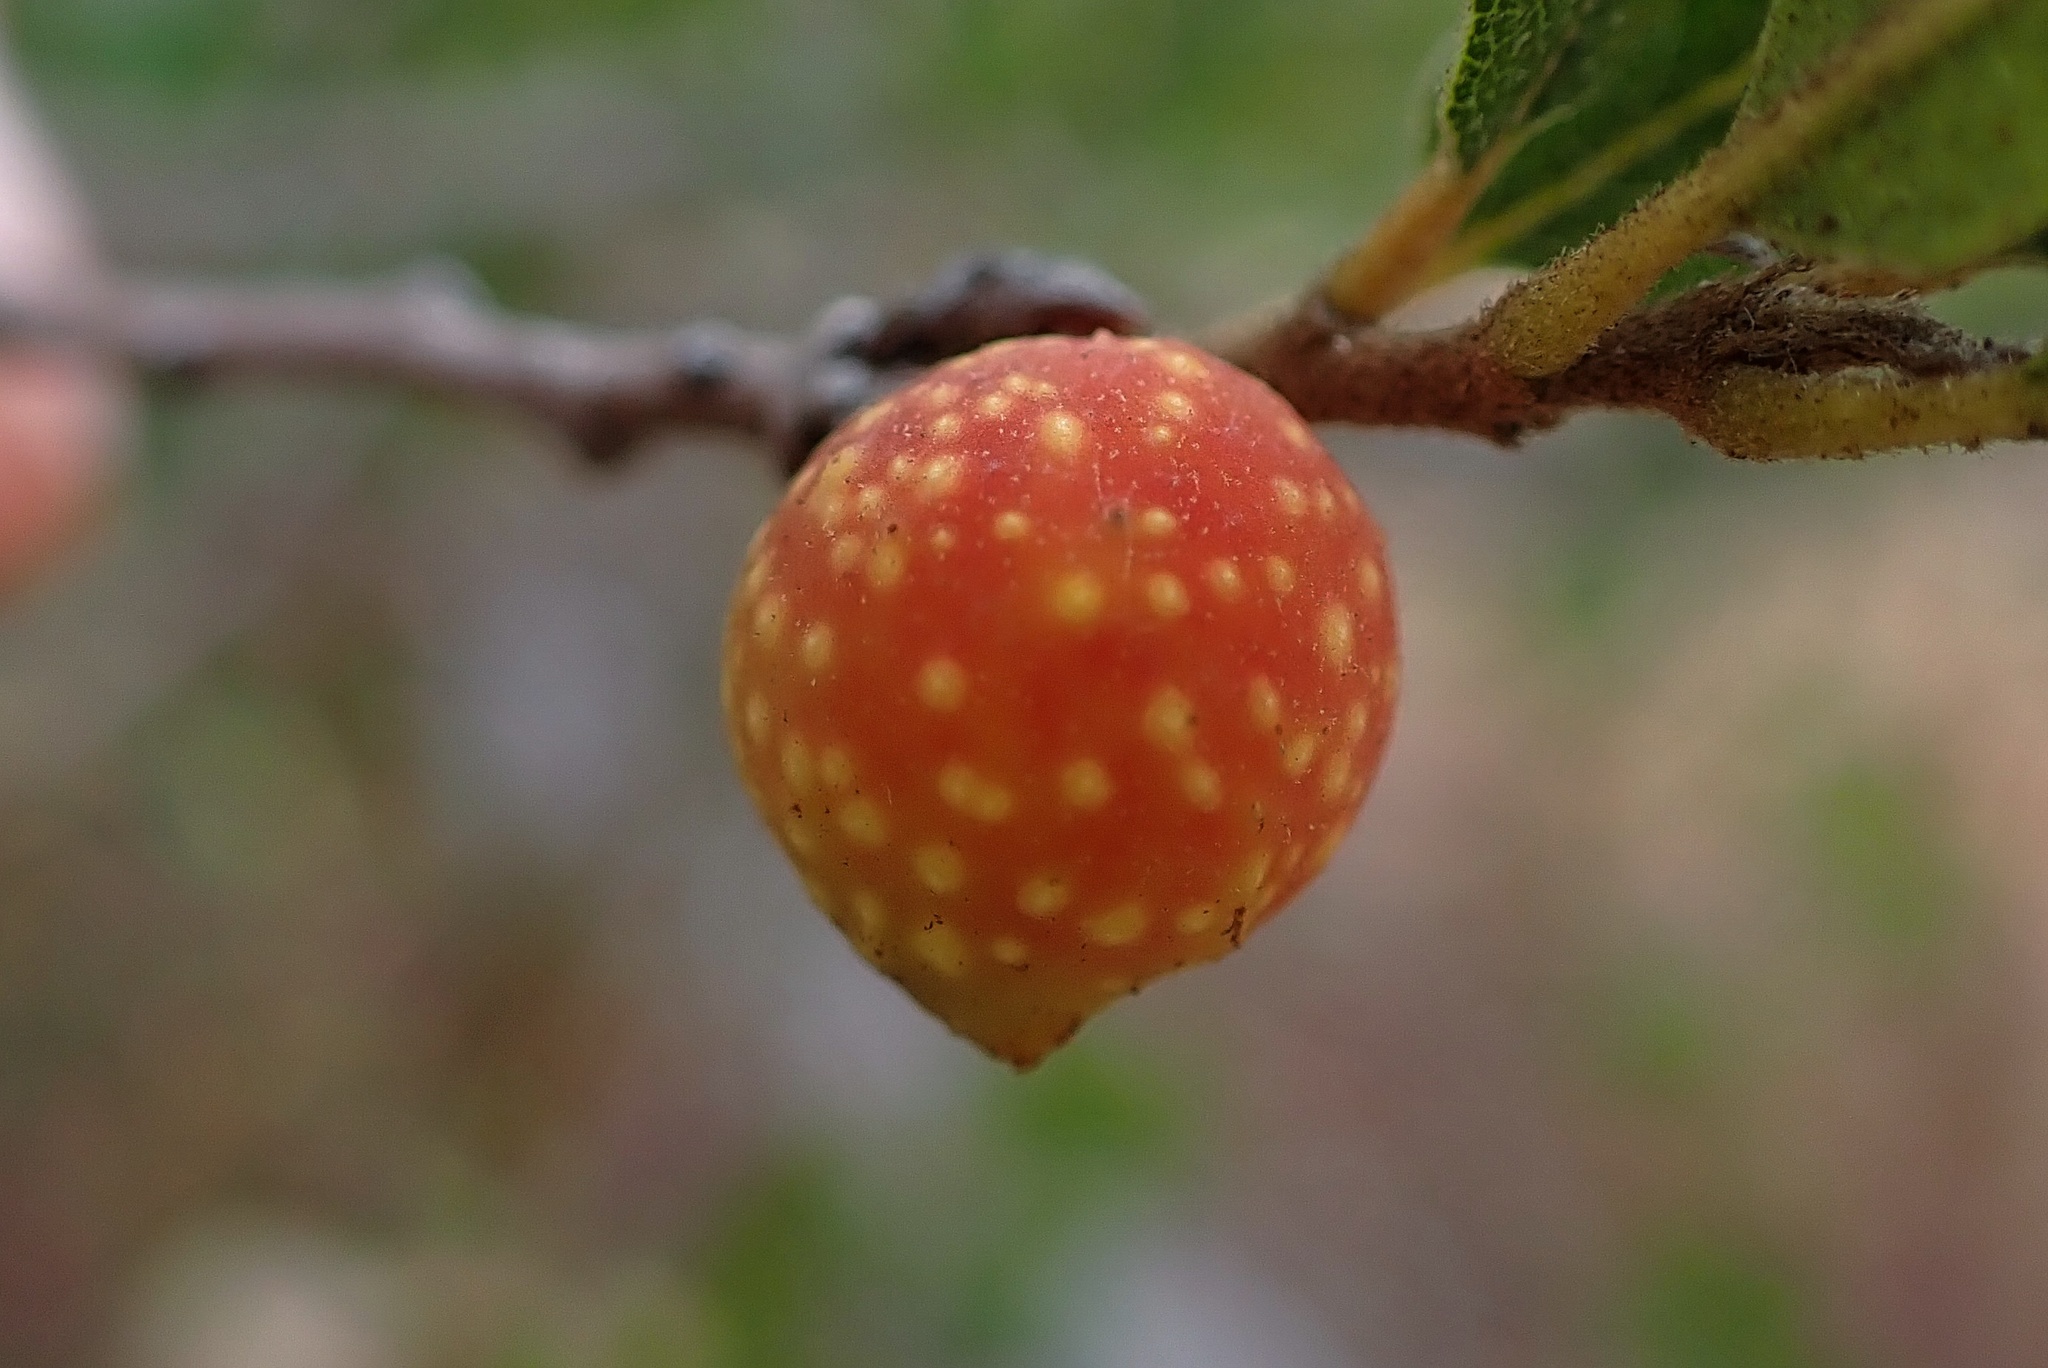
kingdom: Animalia
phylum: Arthropoda
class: Insecta
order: Hymenoptera
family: Cynipidae
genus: Burnettweldia
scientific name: Burnettweldia
